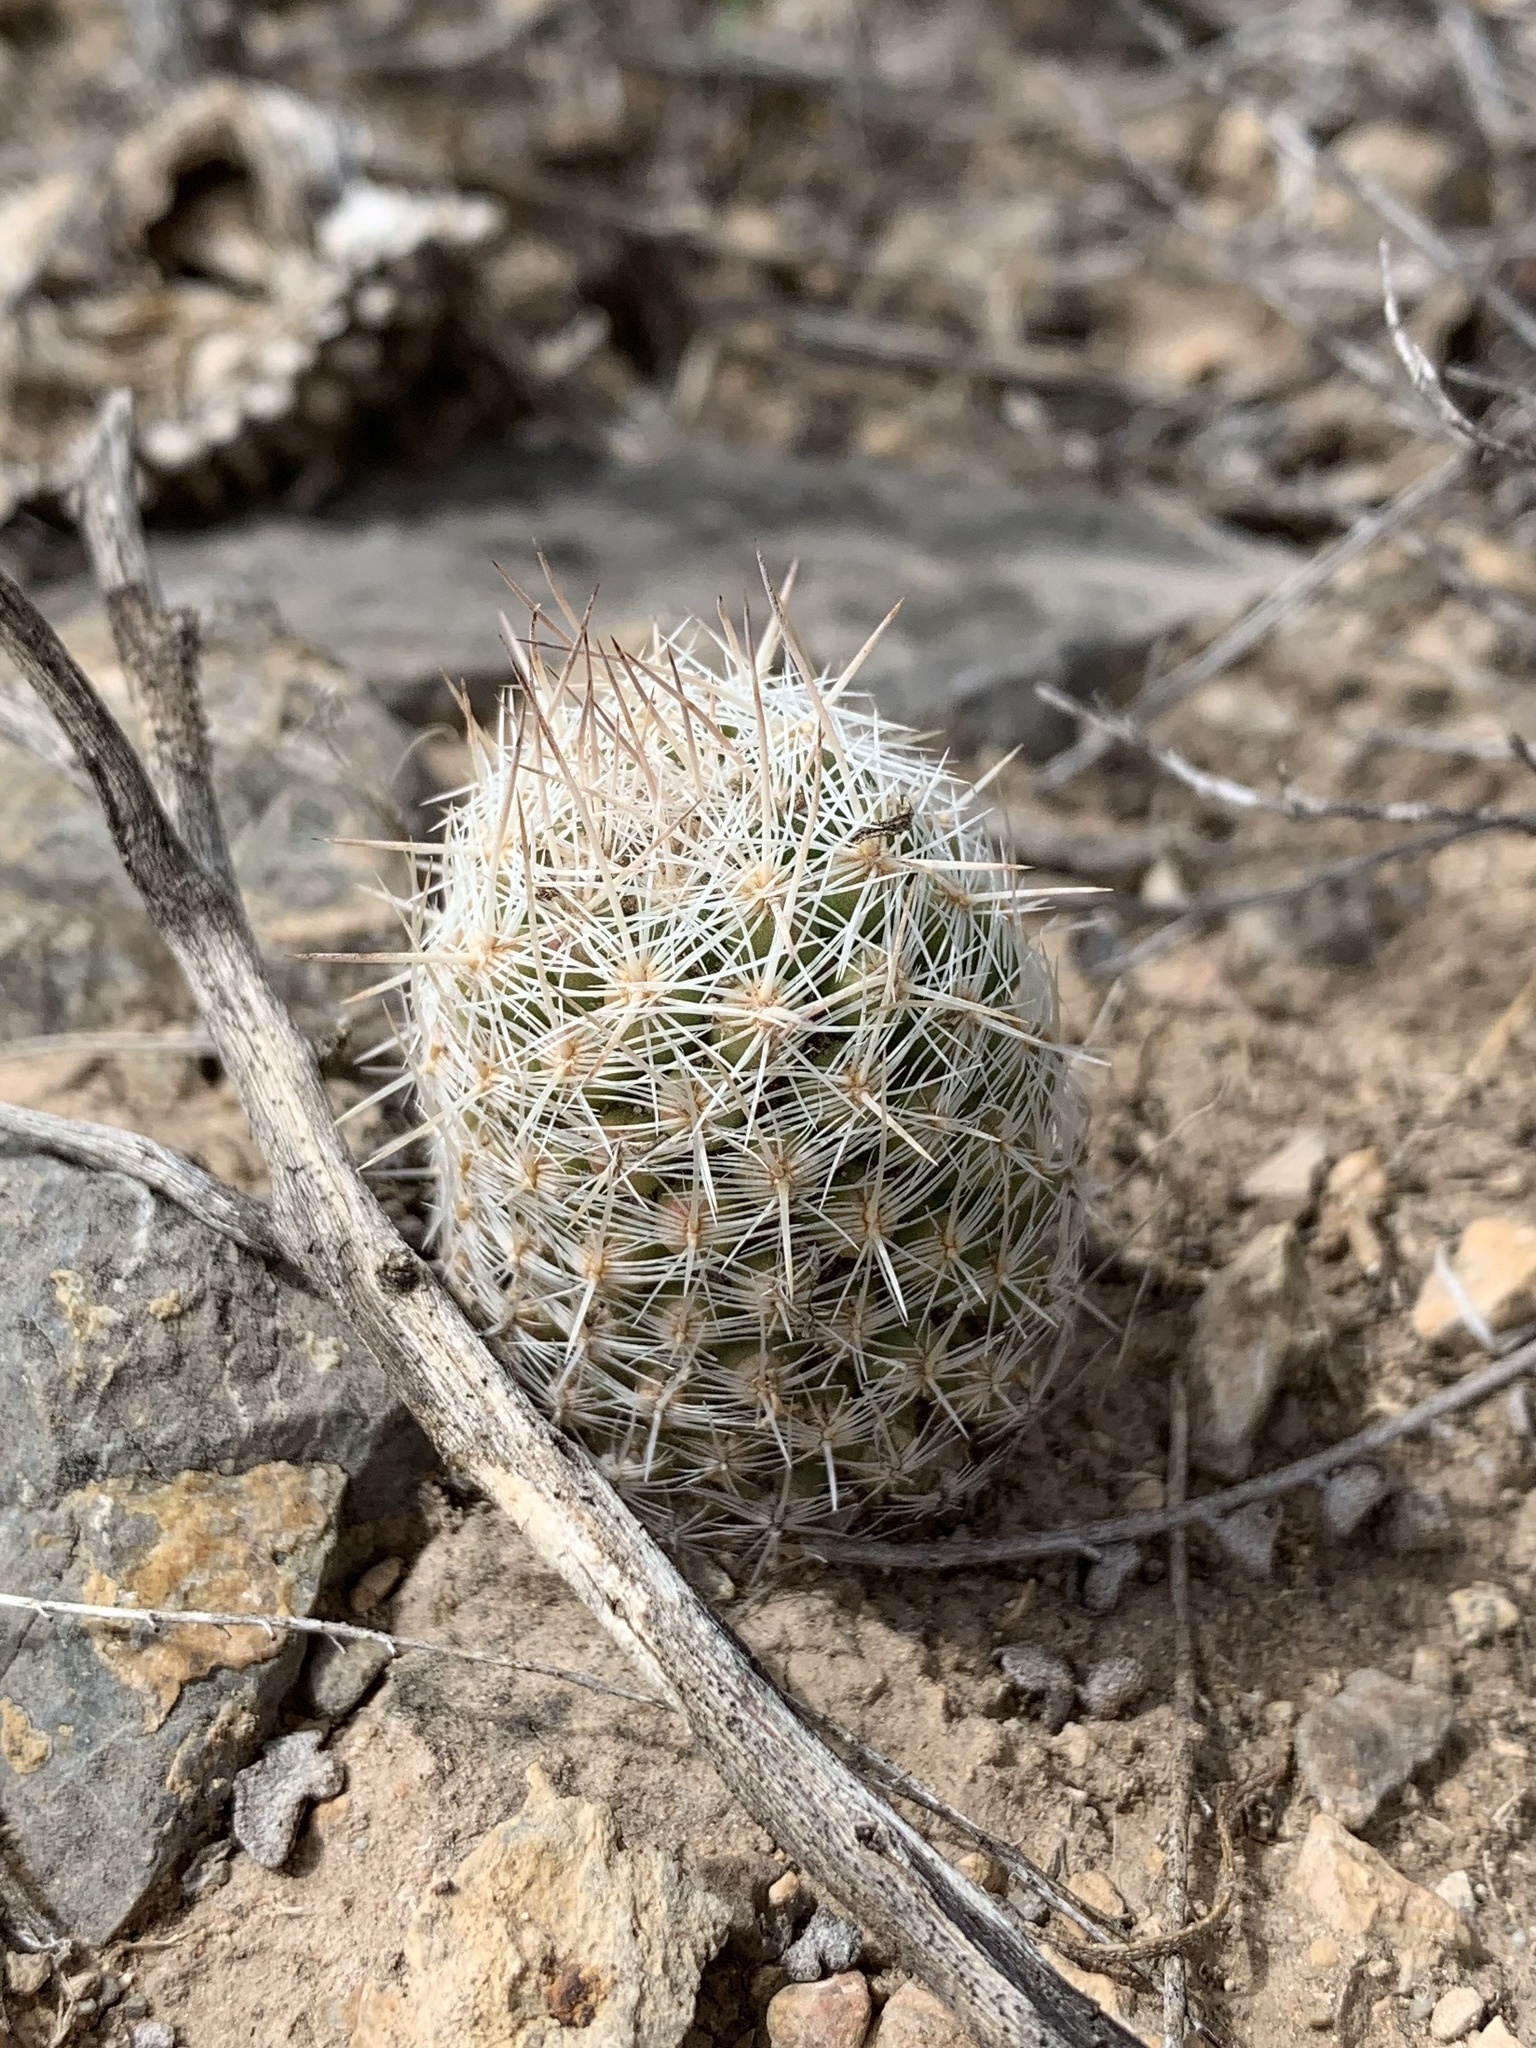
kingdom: Plantae
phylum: Tracheophyta
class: Magnoliopsida
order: Caryophyllales
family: Cactaceae
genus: Pelecyphora
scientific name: Pelecyphora tuberculosa
